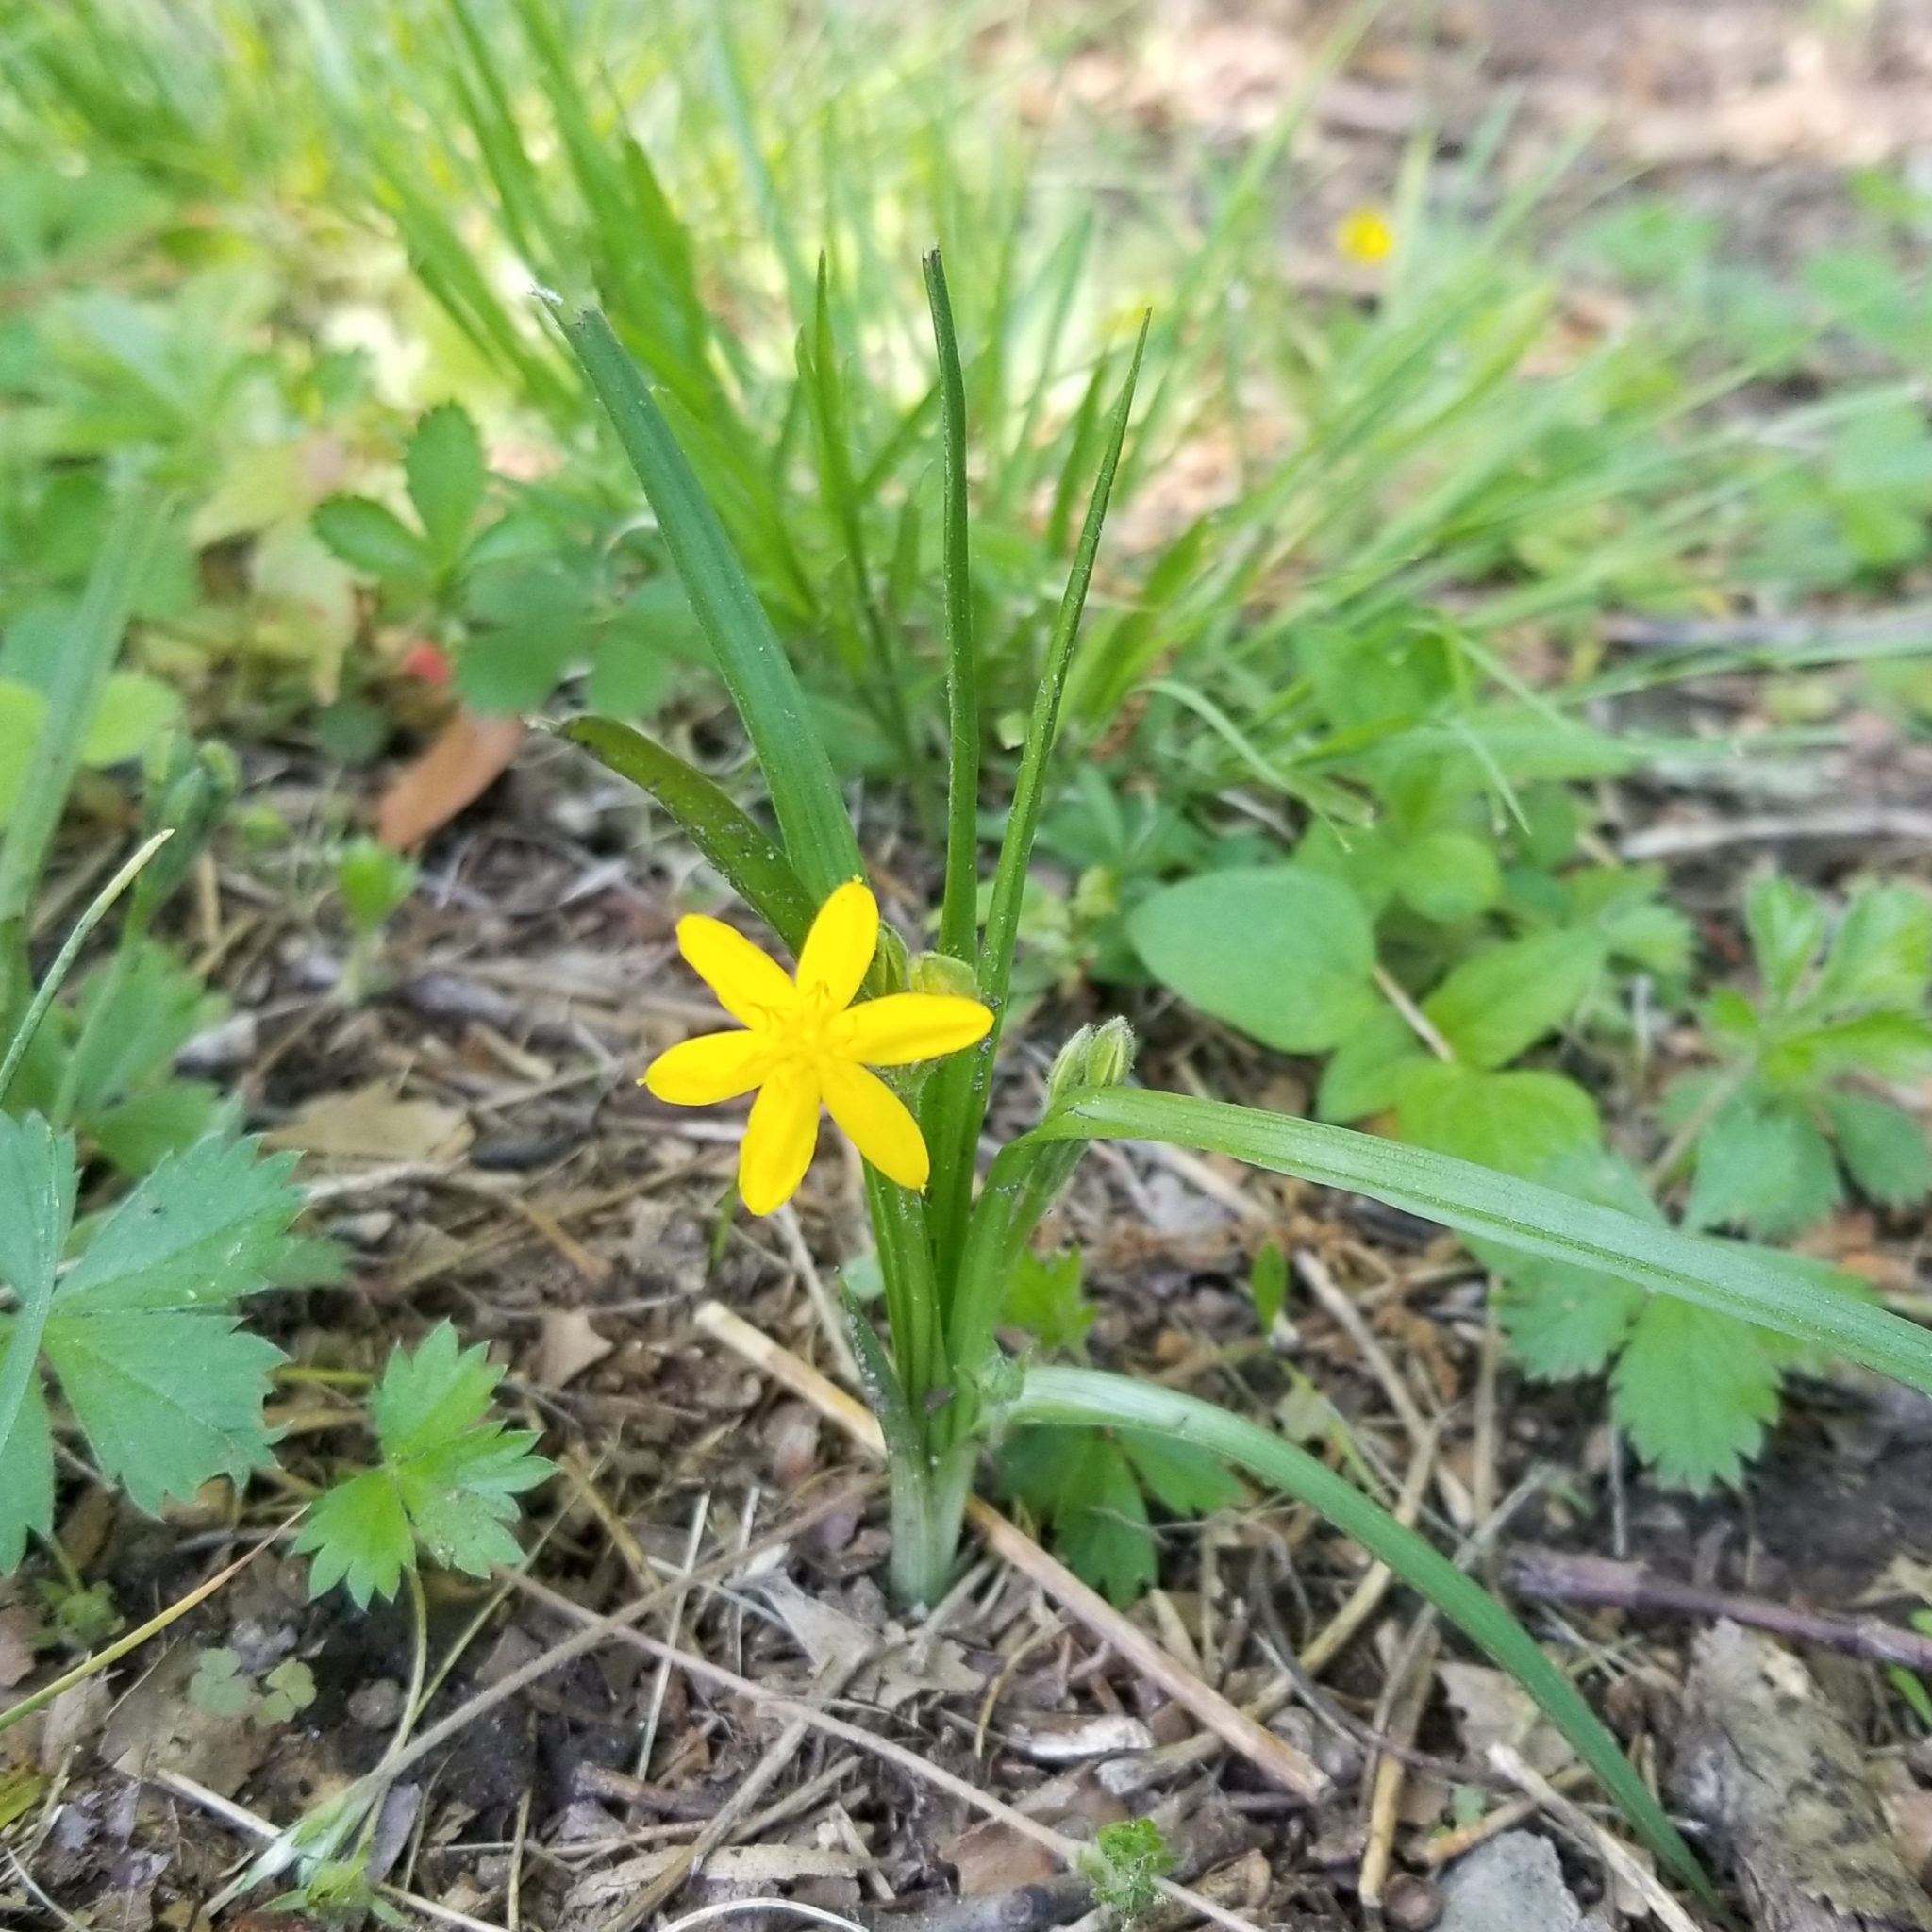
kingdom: Plantae
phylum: Tracheophyta
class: Liliopsida
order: Asparagales
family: Hypoxidaceae
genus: Hypoxis
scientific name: Hypoxis hirsuta
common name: Common goldstar
